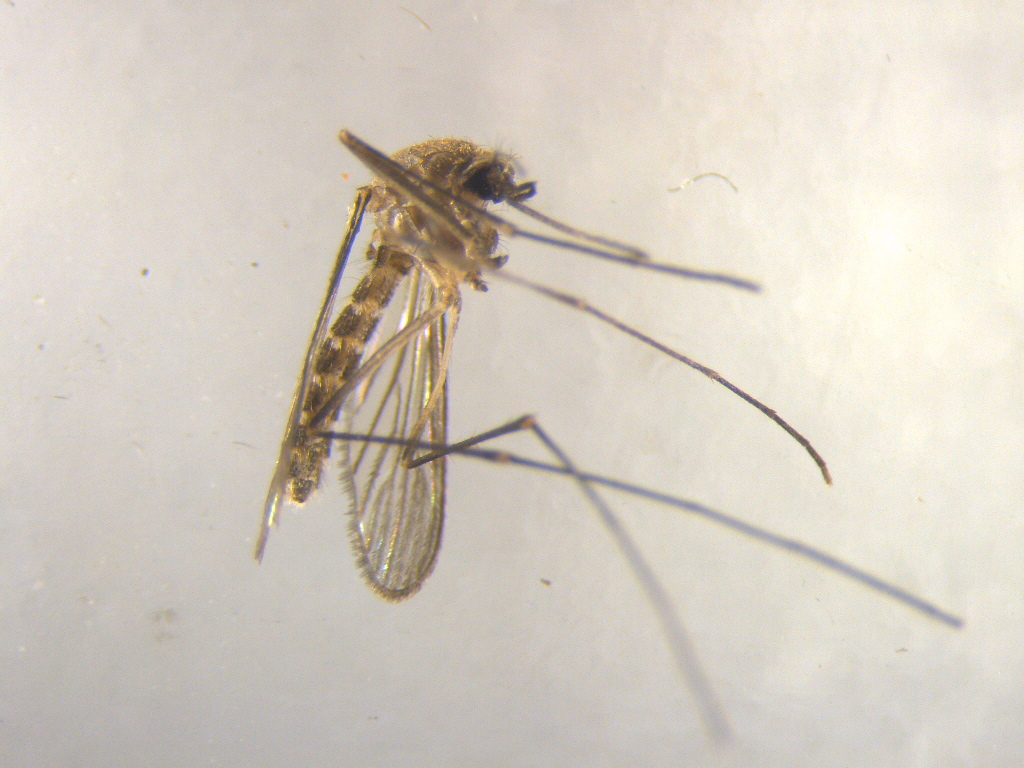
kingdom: Animalia
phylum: Arthropoda
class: Insecta
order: Diptera
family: Culicidae
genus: Culex
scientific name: Culex pervigilans
